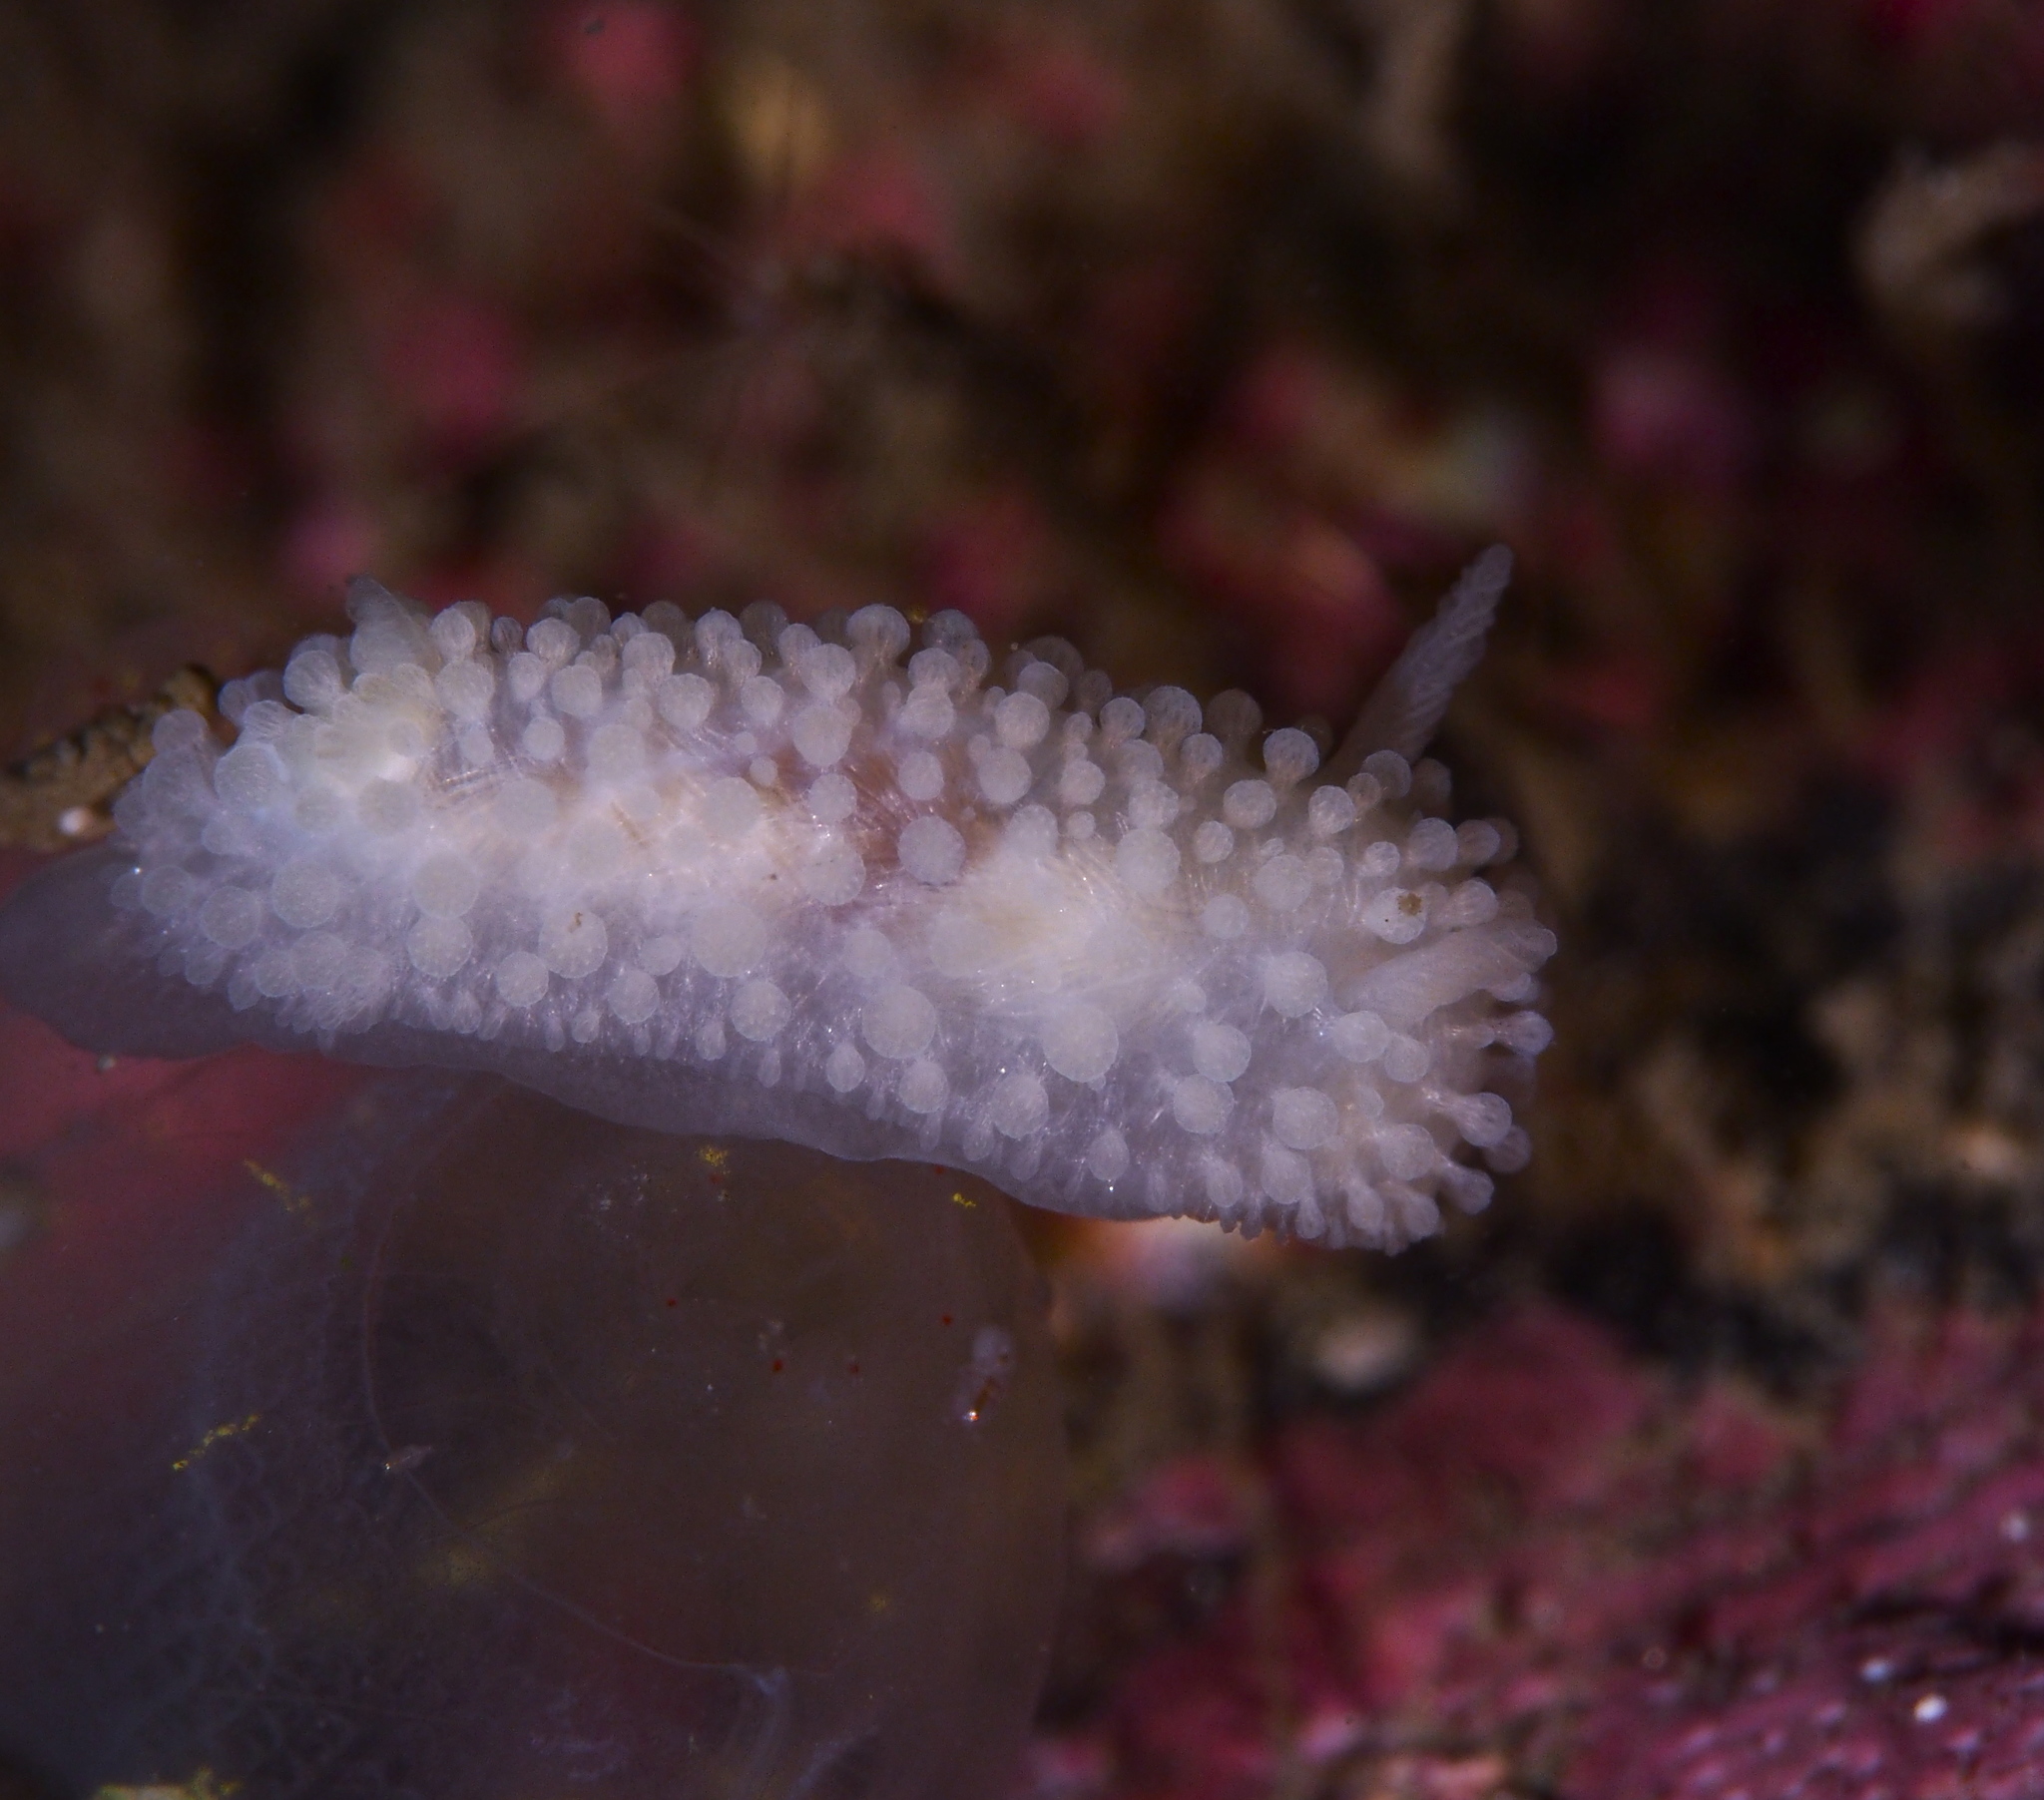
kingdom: Animalia
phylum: Mollusca
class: Gastropoda
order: Nudibranchia
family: Onchidorididae
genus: Onchidoris
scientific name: Onchidoris muricata
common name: Rough doris
